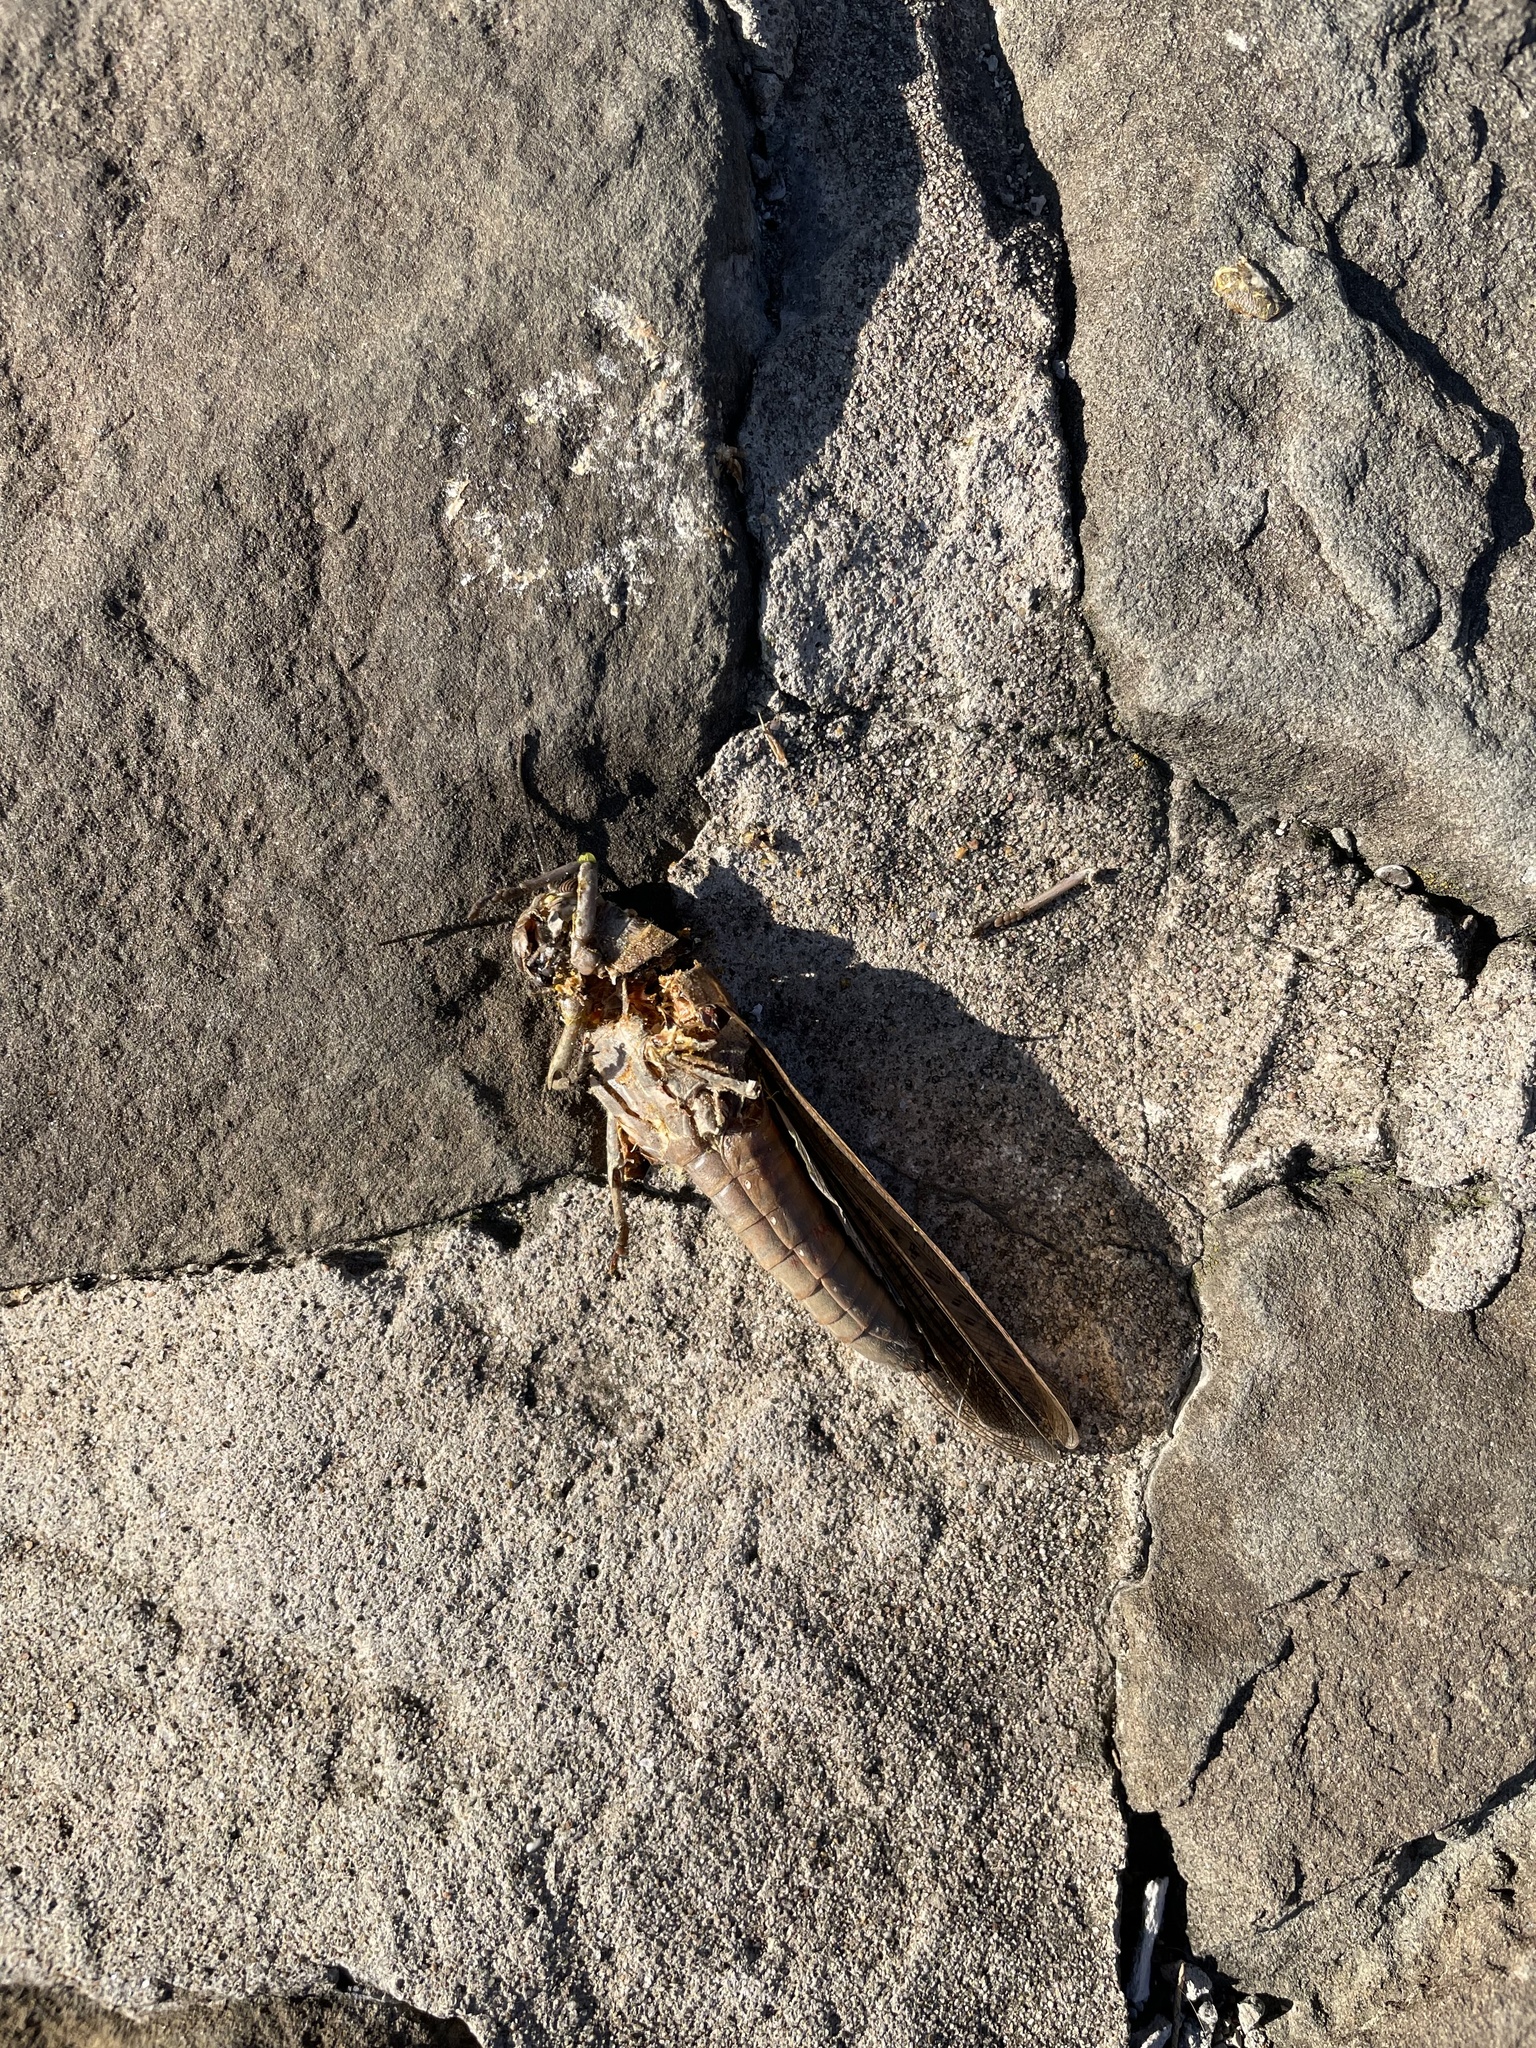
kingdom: Animalia
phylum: Arthropoda
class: Insecta
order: Orthoptera
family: Acrididae
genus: Anacridium
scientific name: Anacridium aegyptium
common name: Egyptian grasshopper
